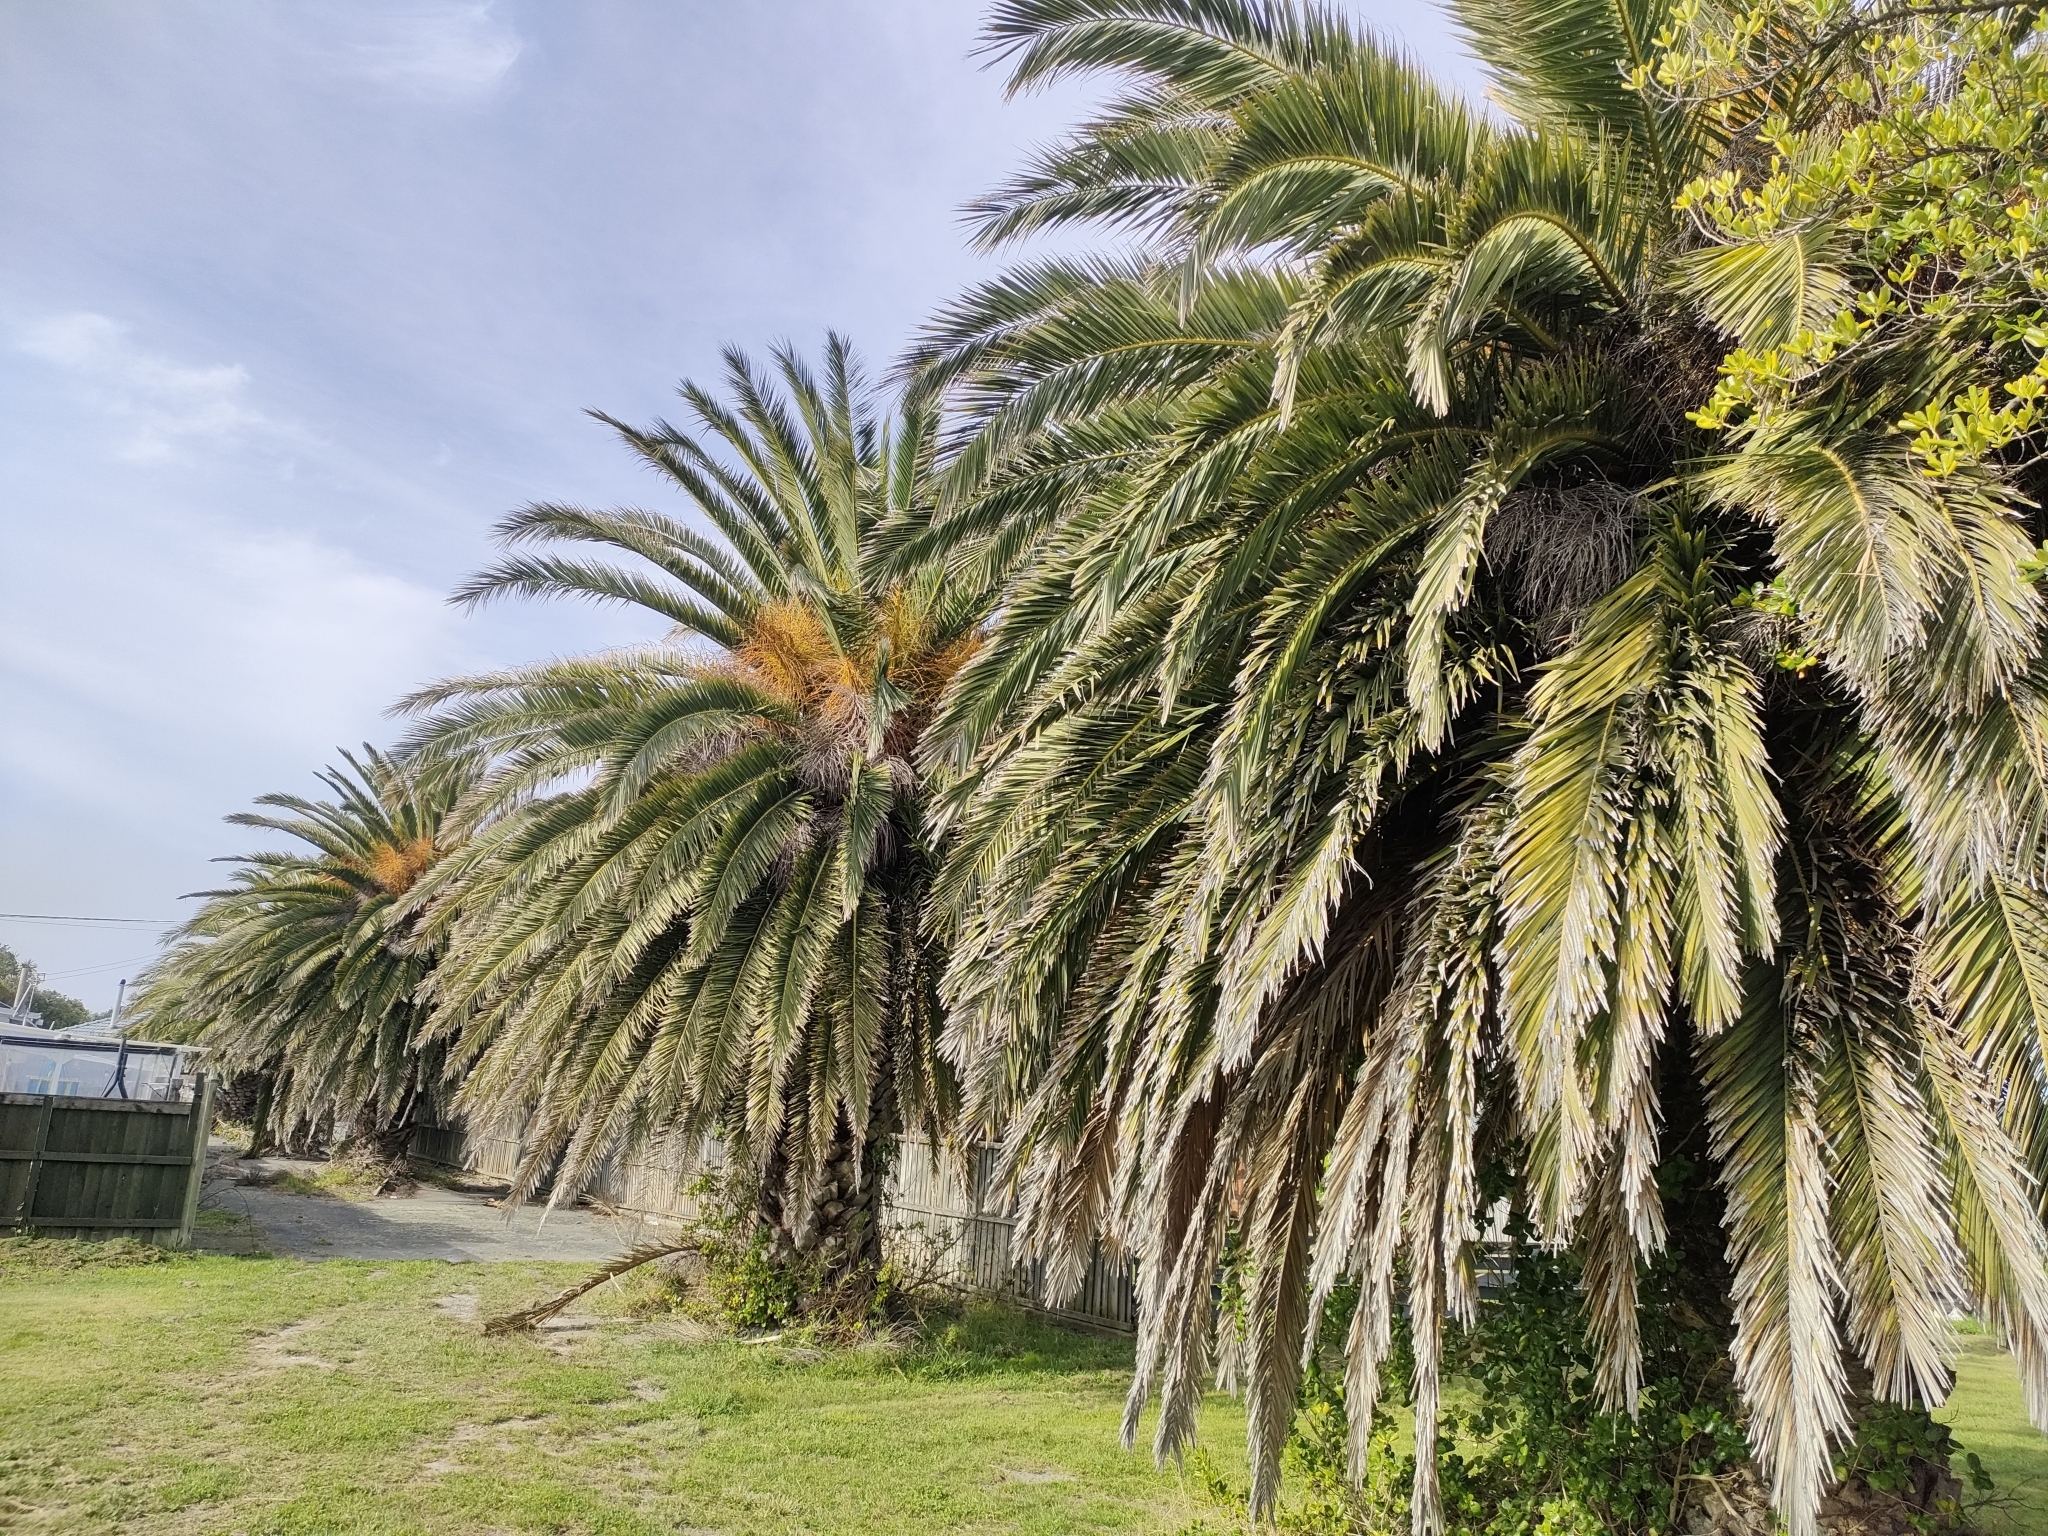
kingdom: Plantae
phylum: Tracheophyta
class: Liliopsida
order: Arecales
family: Arecaceae
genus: Phoenix
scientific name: Phoenix canariensis
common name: Canary island date palm
